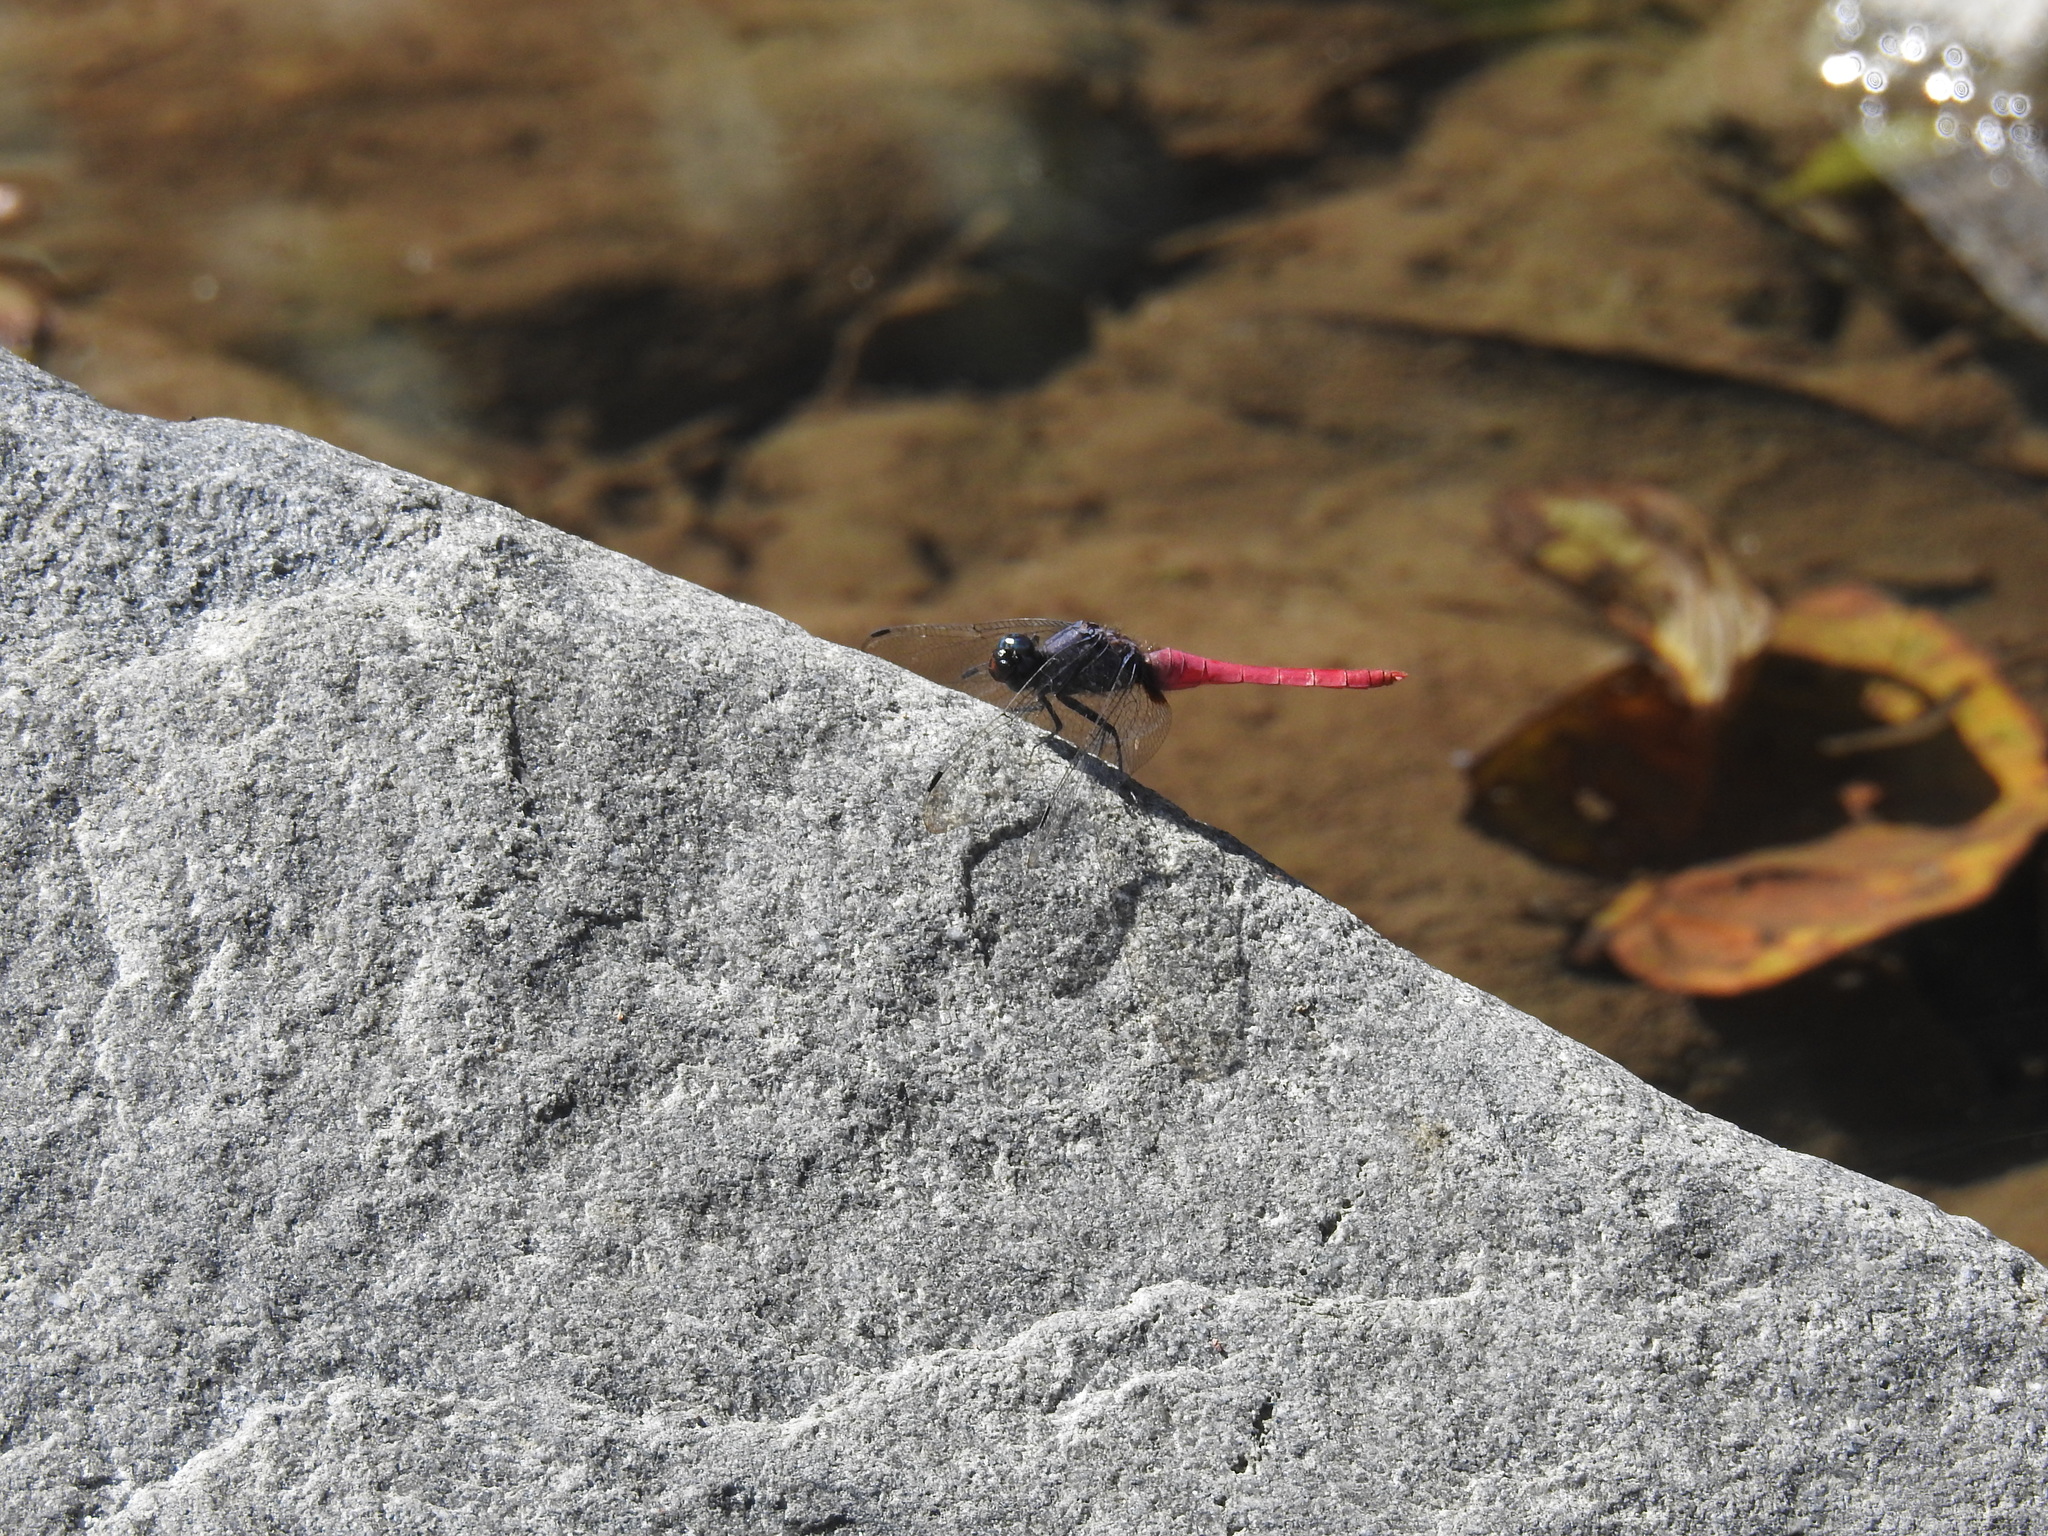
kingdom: Animalia
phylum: Arthropoda
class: Insecta
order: Odonata
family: Libellulidae
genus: Orthetrum
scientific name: Orthetrum pruinosum
